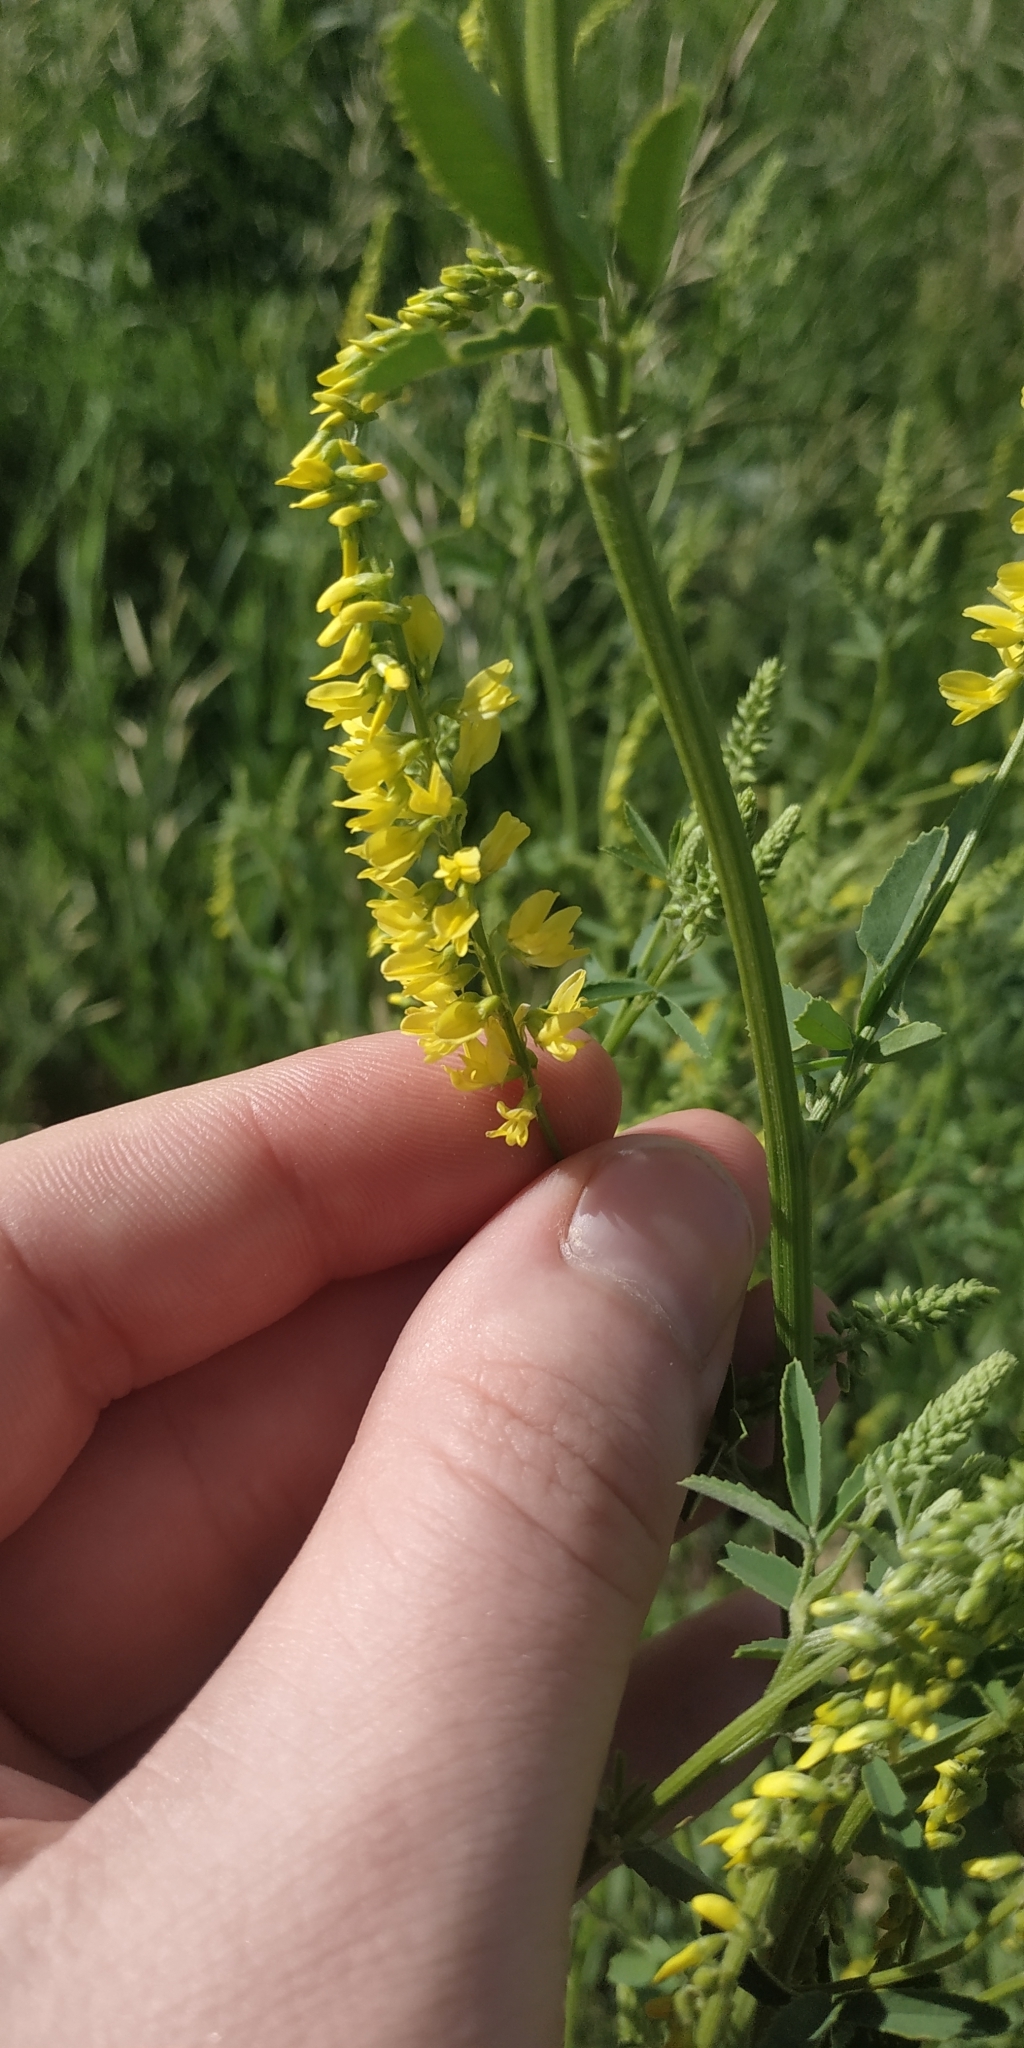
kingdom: Plantae
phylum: Tracheophyta
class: Magnoliopsida
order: Fabales
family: Fabaceae
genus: Melilotus
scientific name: Melilotus officinalis
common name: Sweetclover
